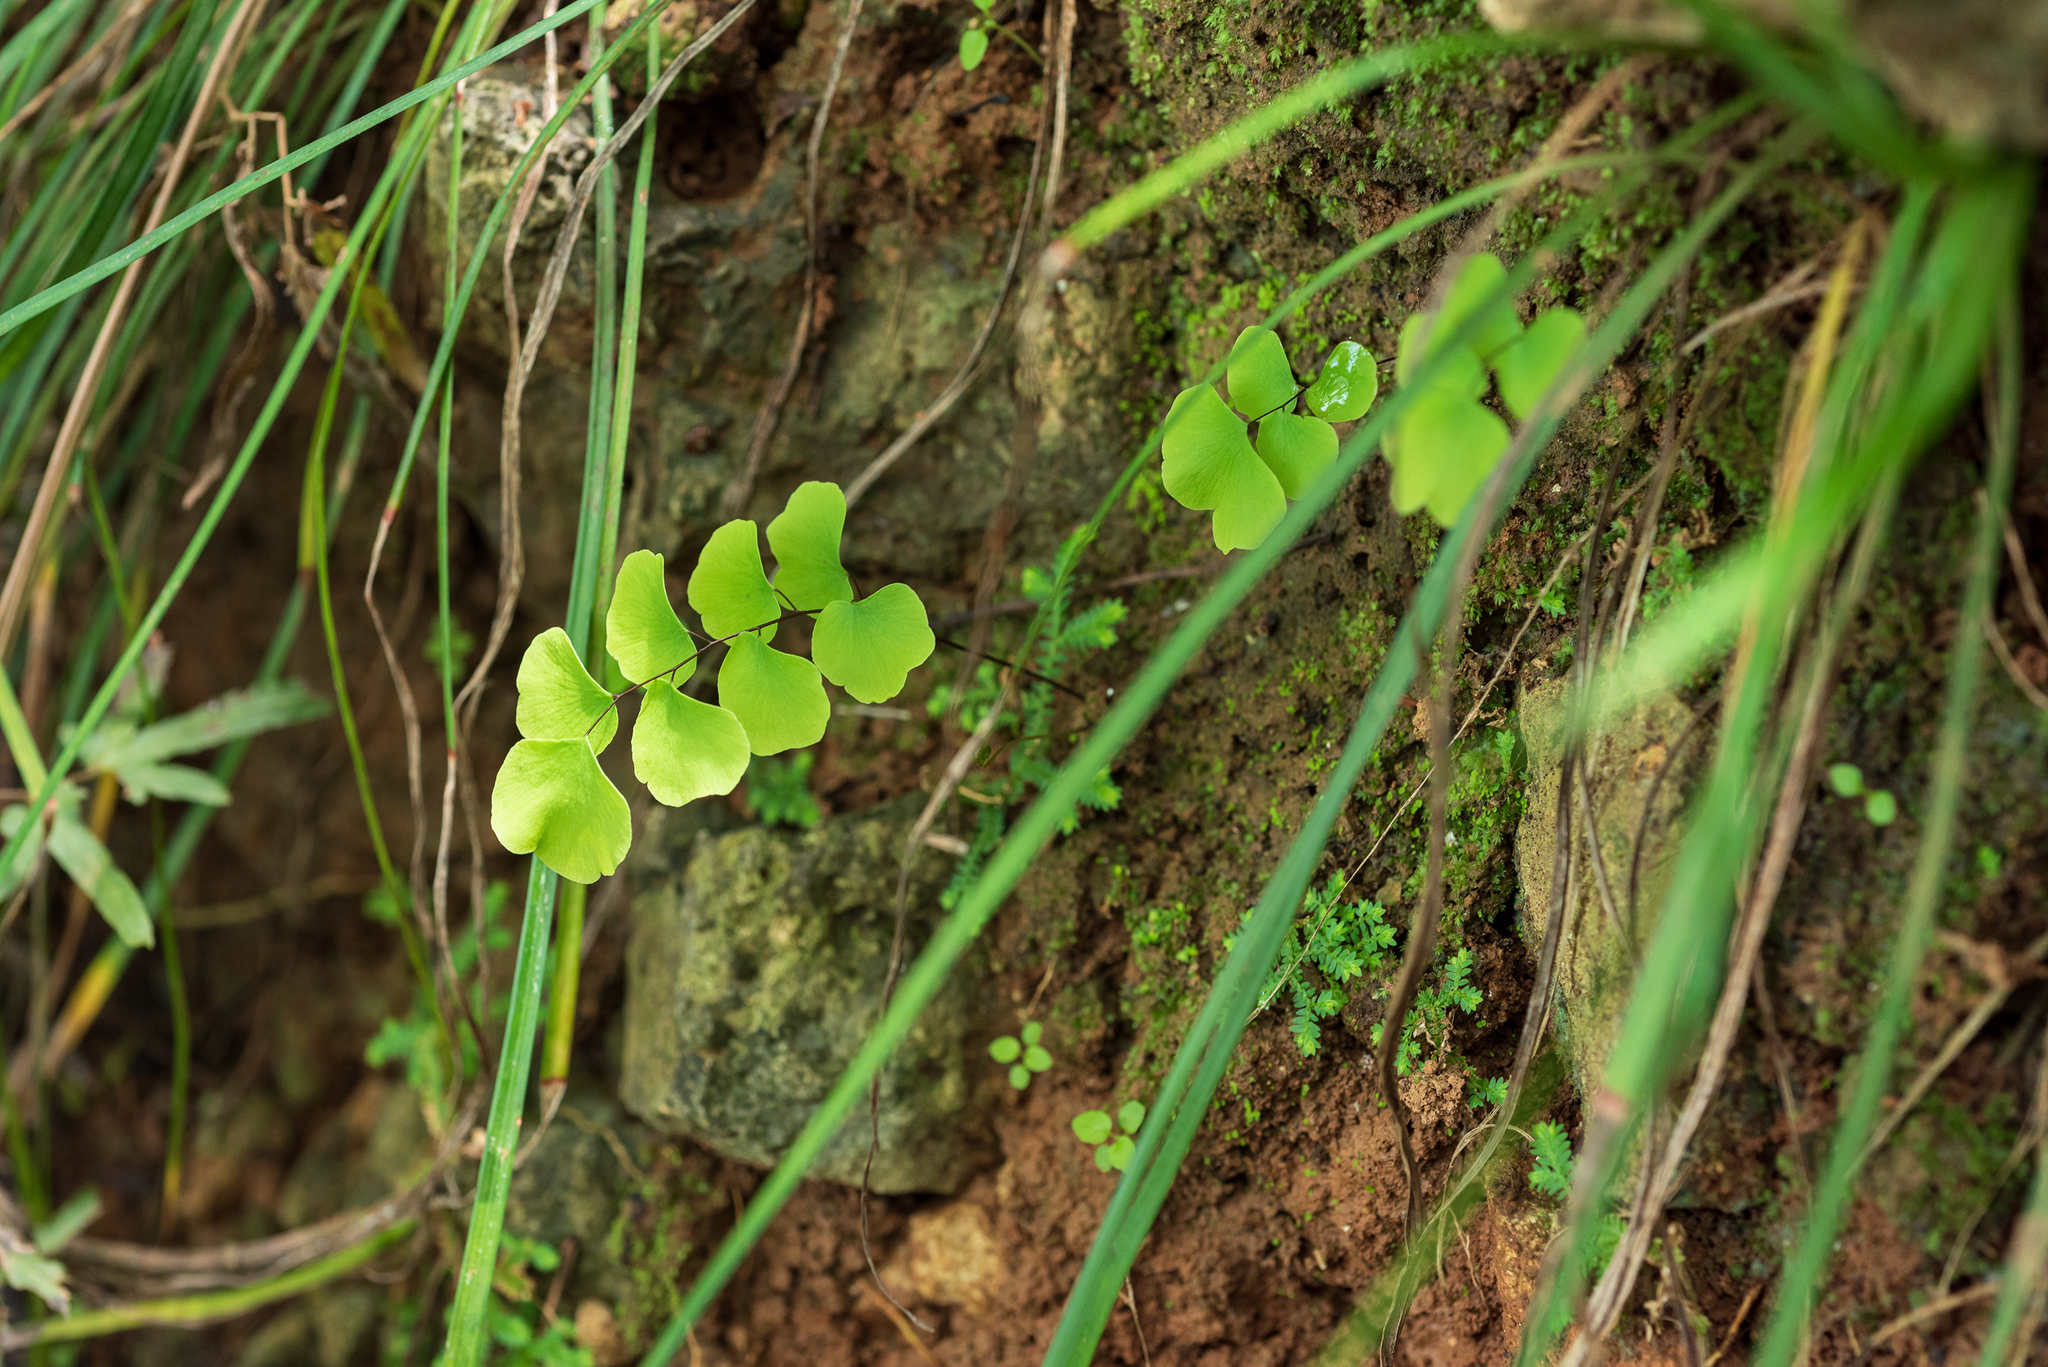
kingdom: Plantae
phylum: Tracheophyta
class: Polypodiopsida
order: Polypodiales
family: Pteridaceae
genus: Adiantum
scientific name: Adiantum philippense
